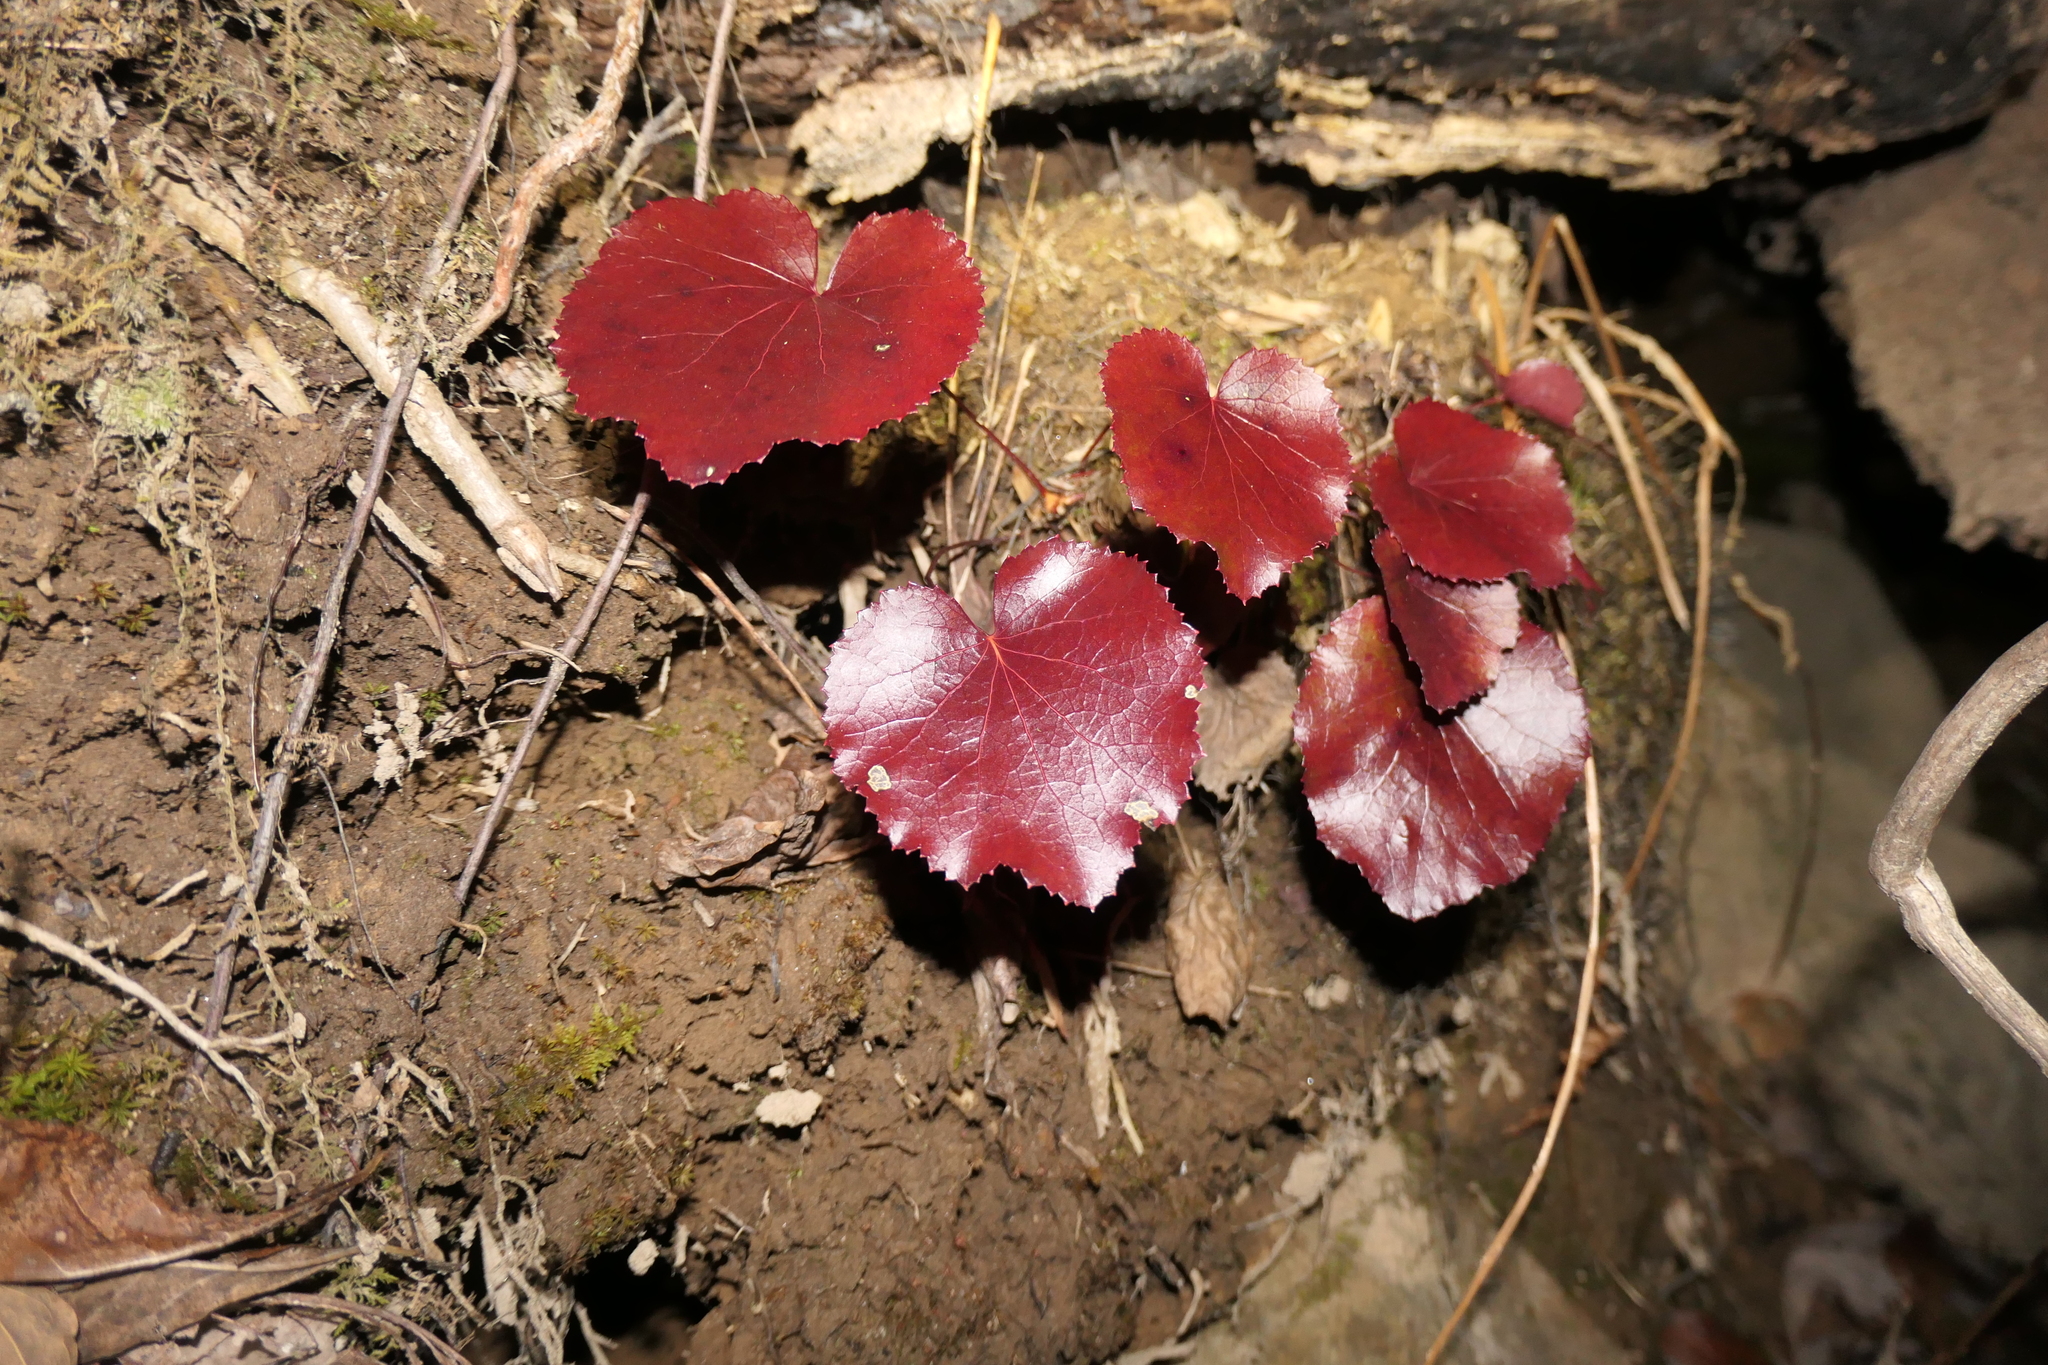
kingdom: Plantae
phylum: Tracheophyta
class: Magnoliopsida
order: Ericales
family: Diapensiaceae
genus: Galax
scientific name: Galax urceolata
